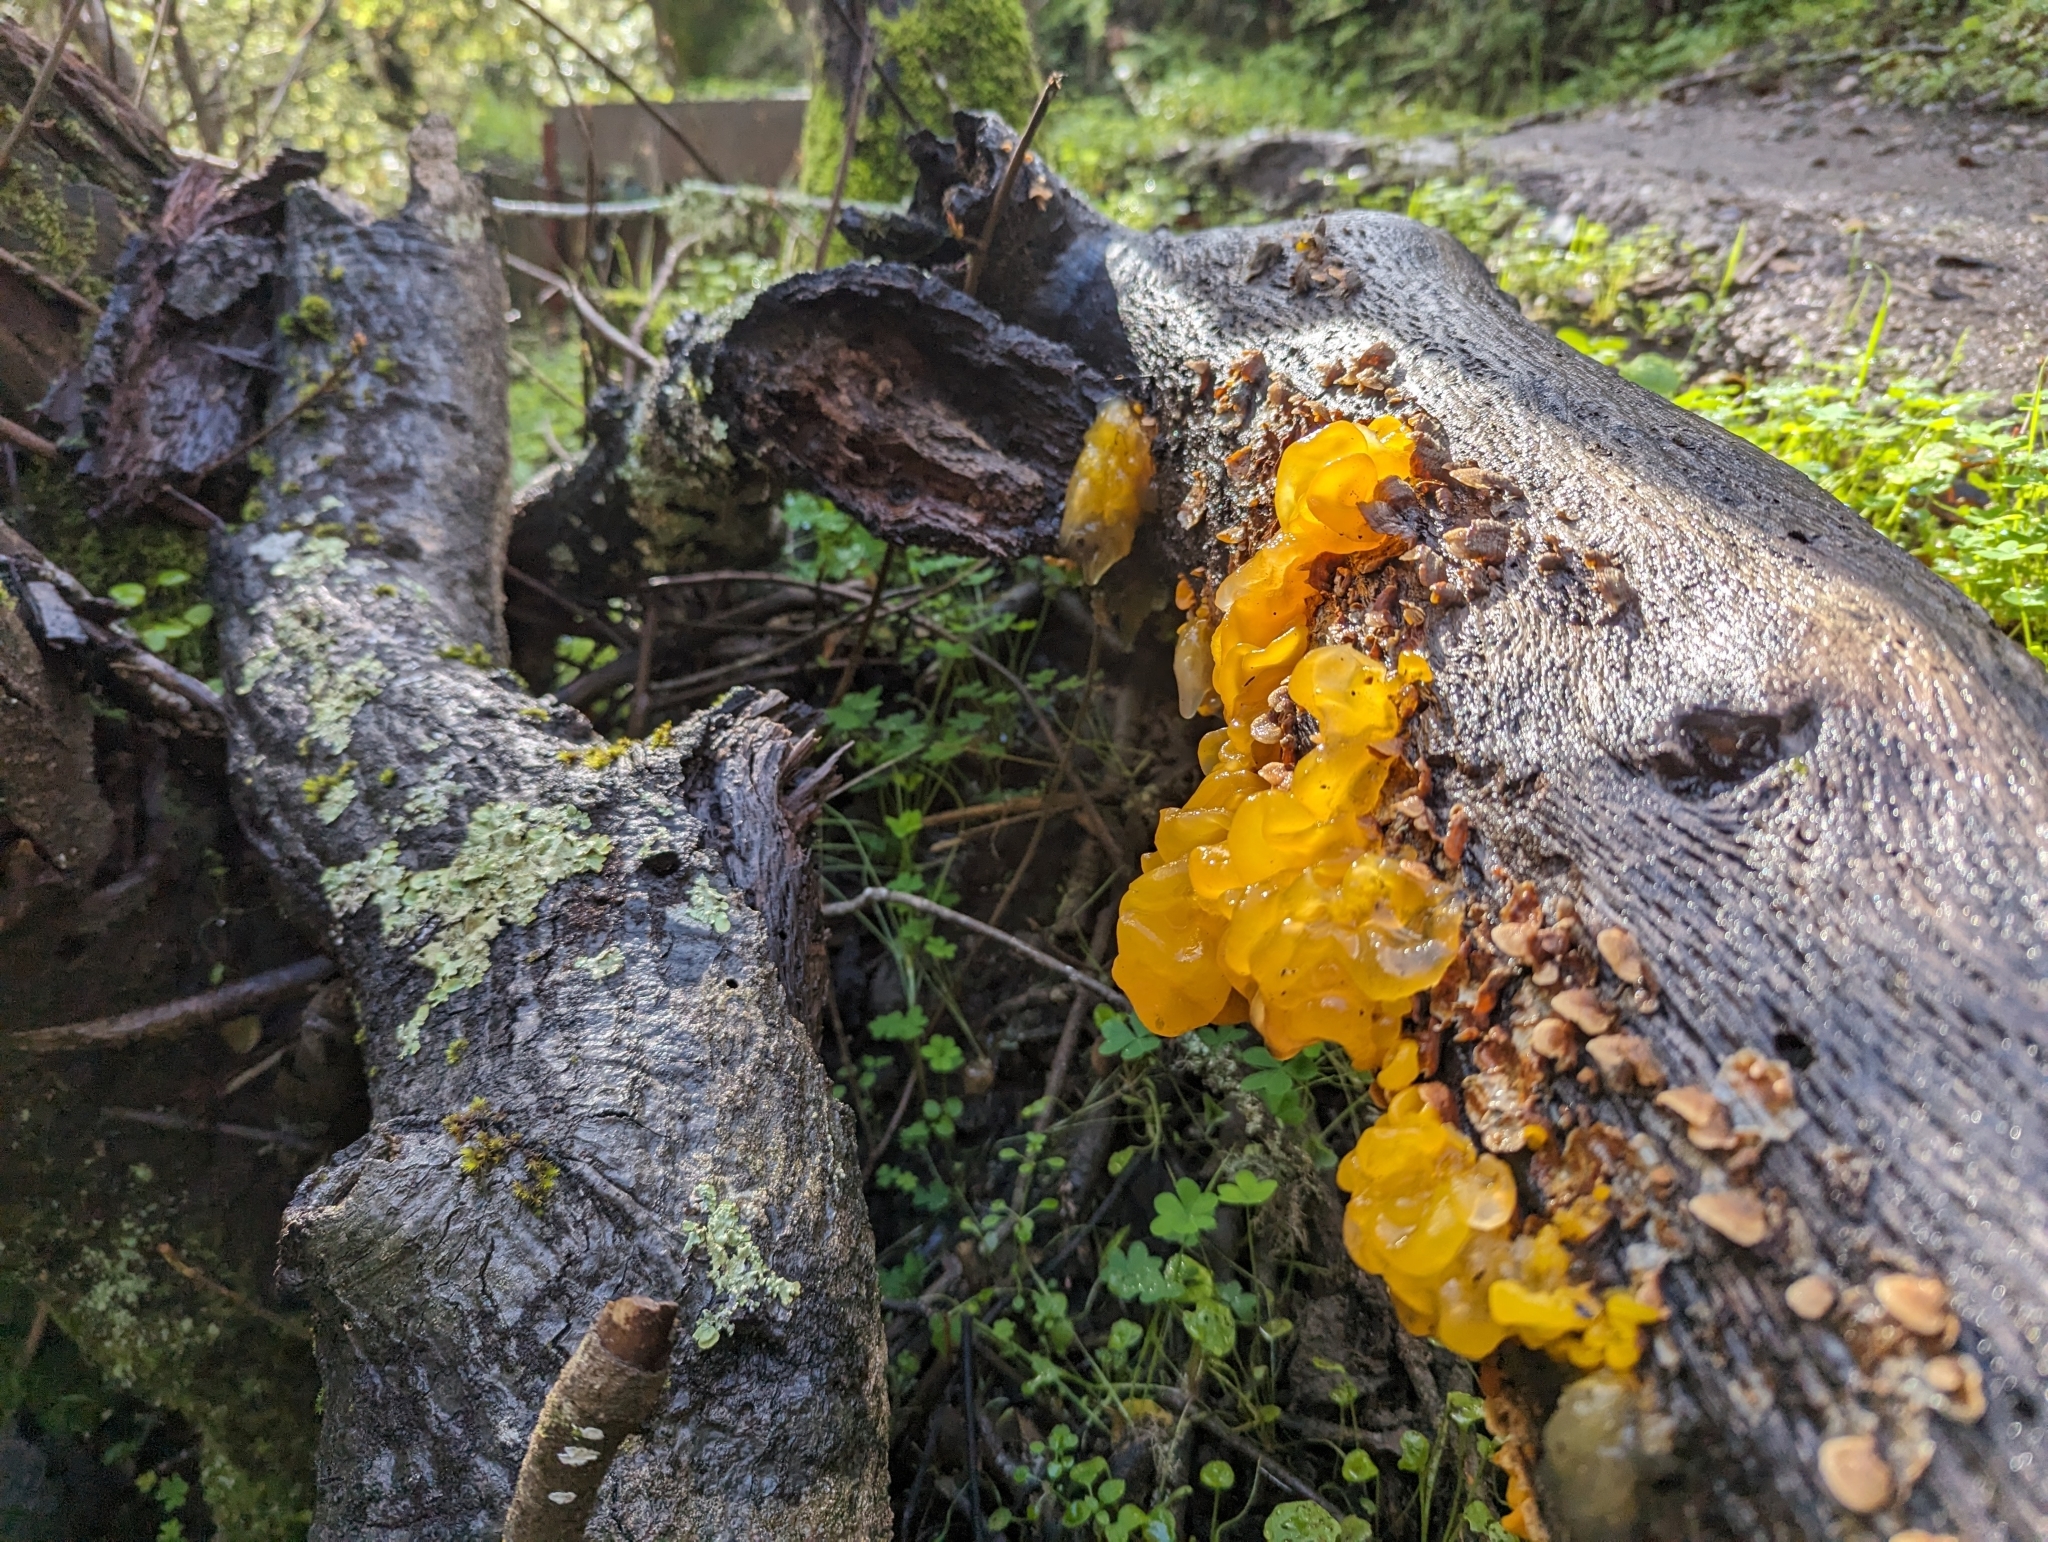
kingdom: Fungi
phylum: Basidiomycota
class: Tremellomycetes
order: Tremellales
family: Naemateliaceae
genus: Naematelia
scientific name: Naematelia aurantia
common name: Golden ear
